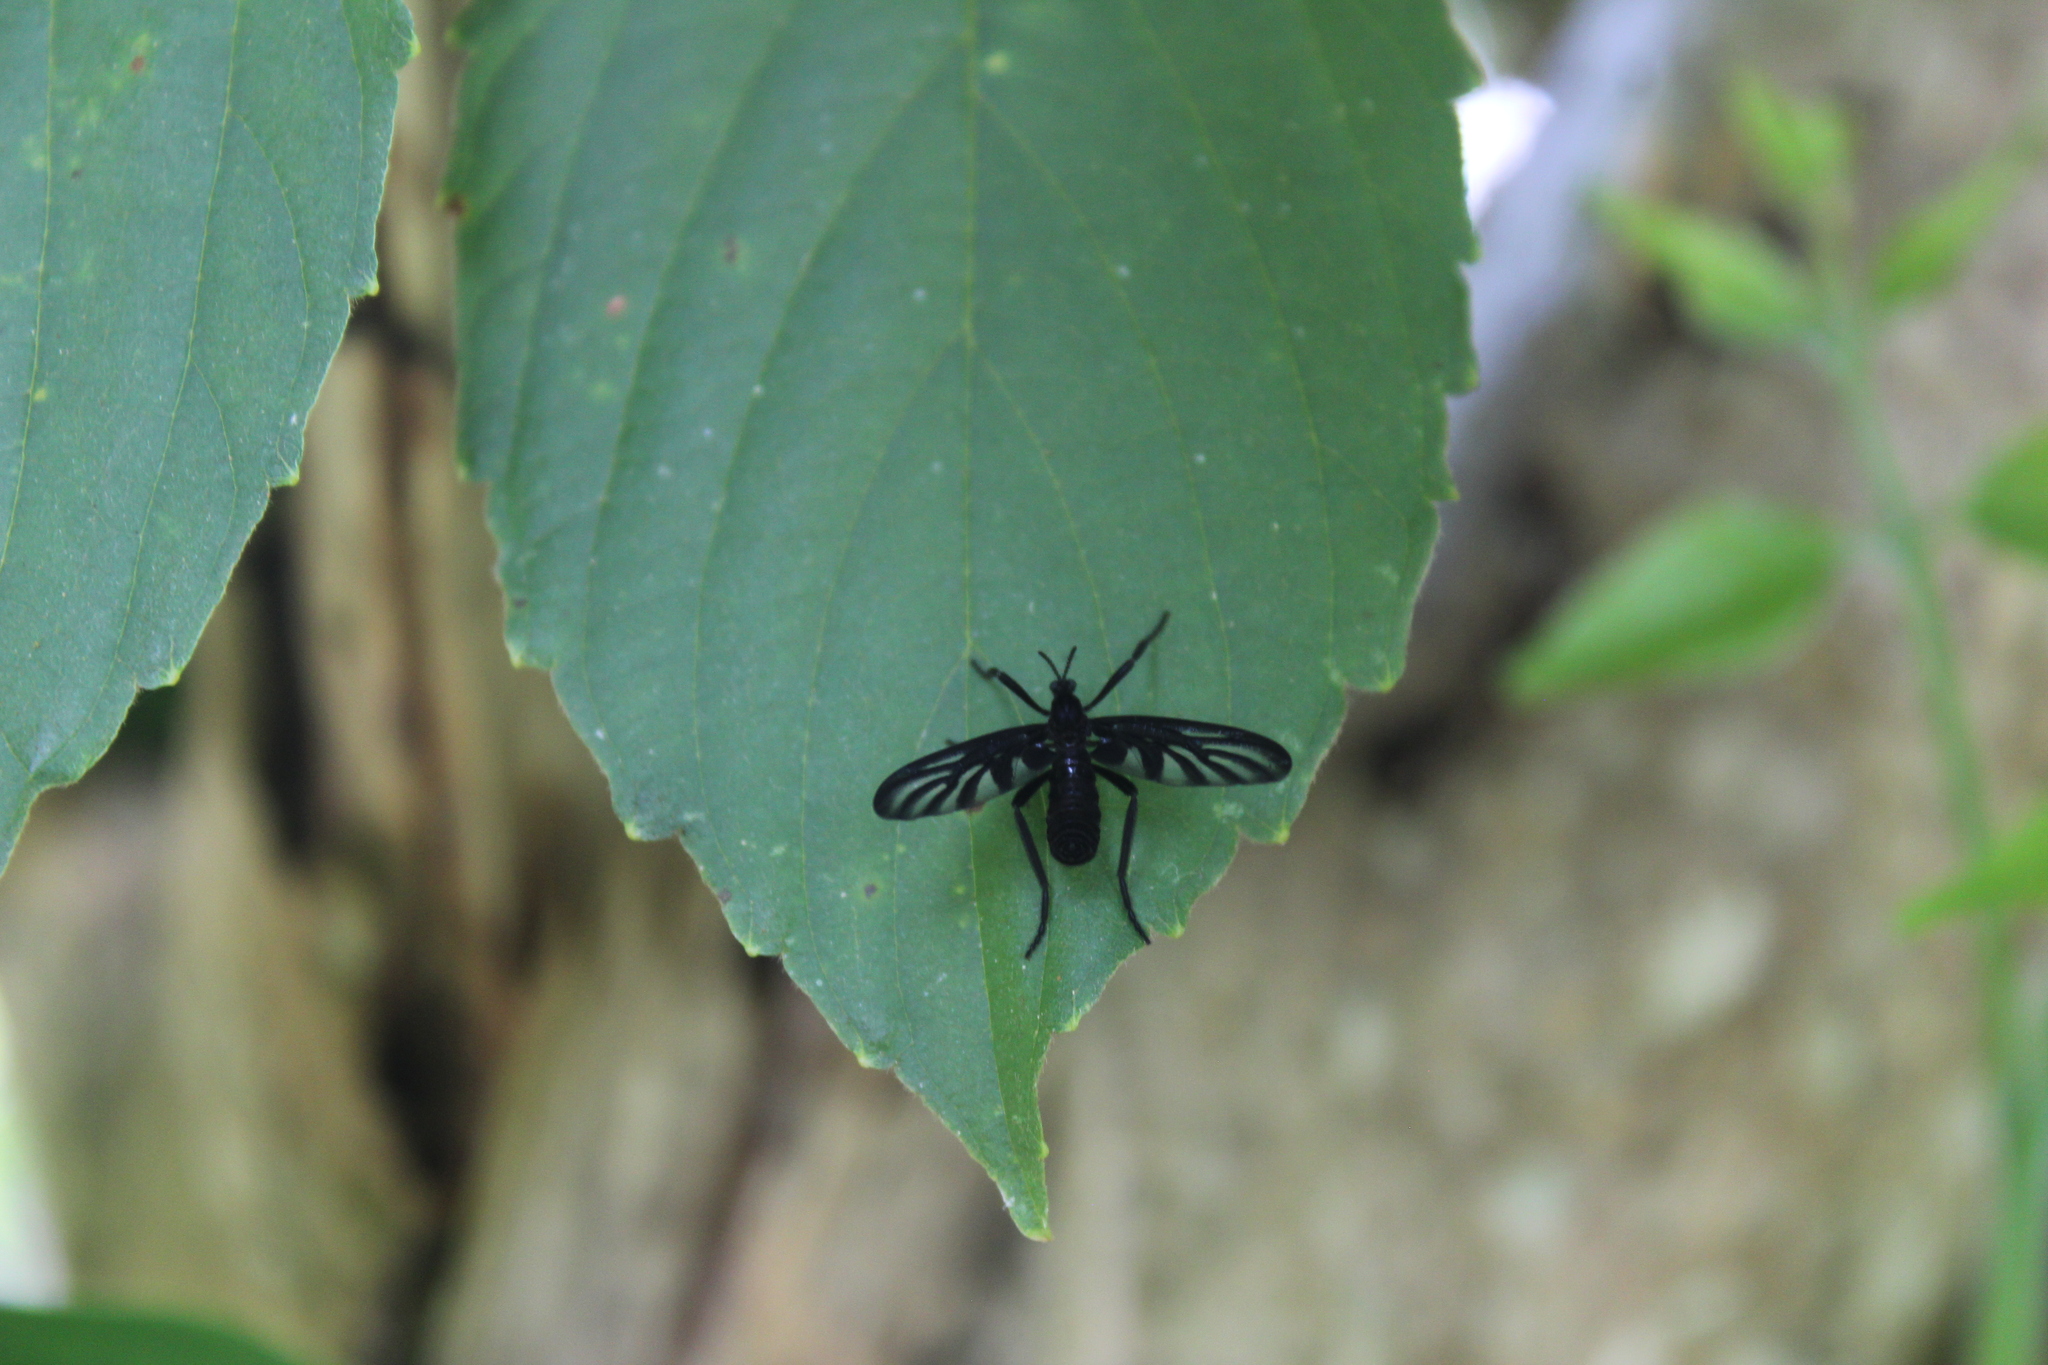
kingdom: Animalia
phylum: Arthropoda
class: Insecta
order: Diptera
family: Bibionidae
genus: Plecia
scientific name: Plecia plagiata
